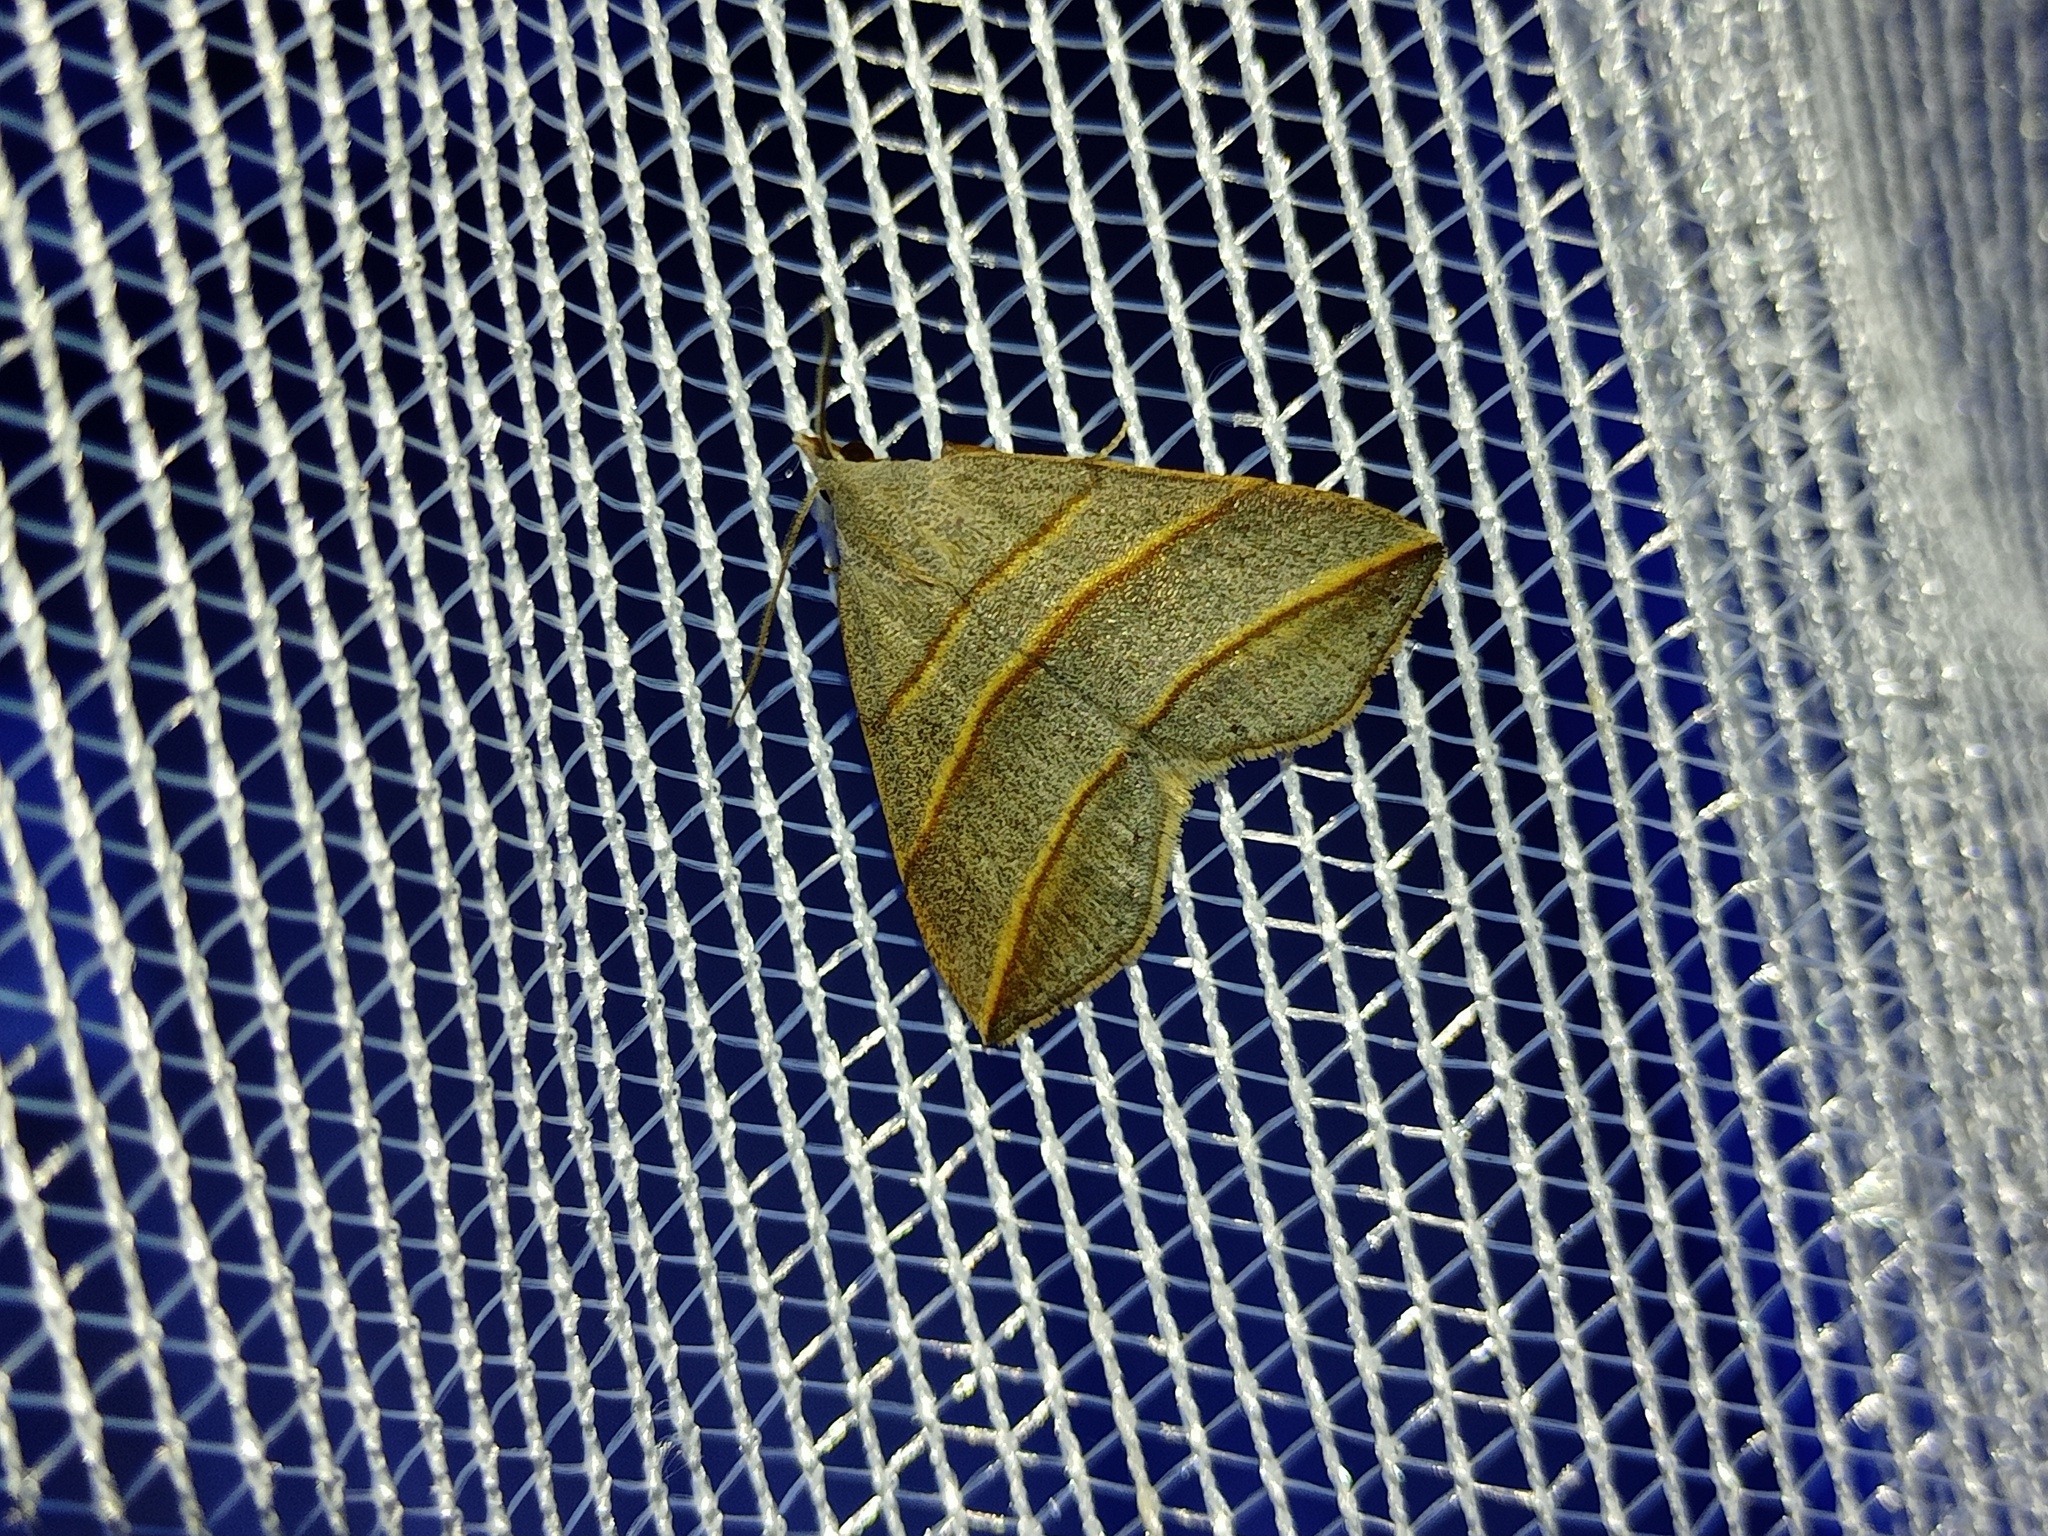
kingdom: Animalia
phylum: Arthropoda
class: Insecta
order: Lepidoptera
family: Erebidae
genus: Colobochyla
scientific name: Colobochyla salicalis
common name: Lesser belle
